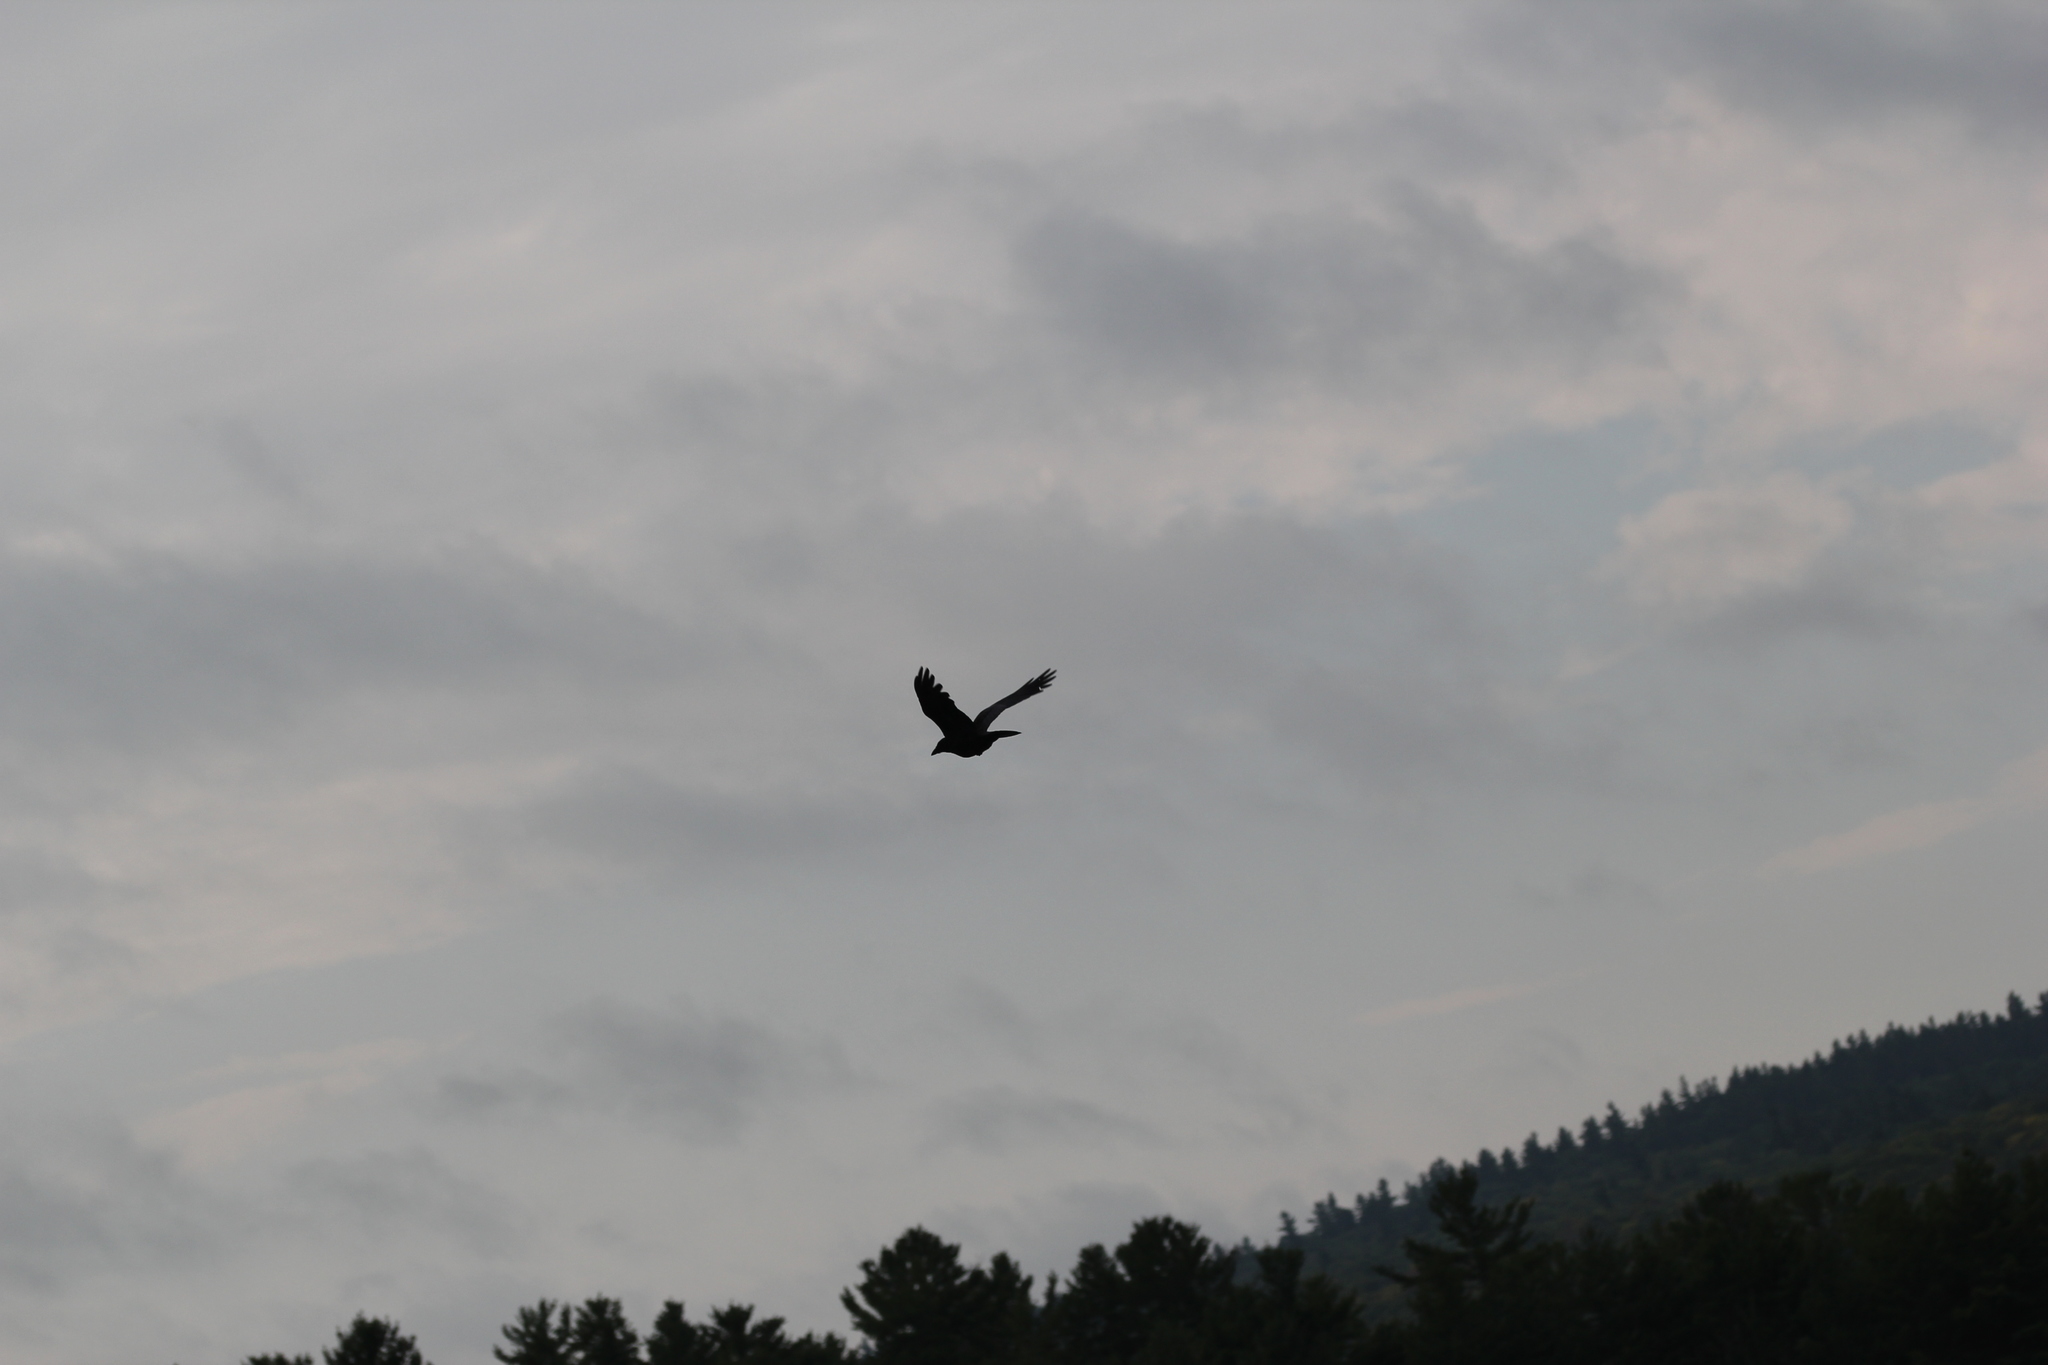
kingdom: Animalia
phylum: Chordata
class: Aves
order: Passeriformes
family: Corvidae
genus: Corvus
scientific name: Corvus brachyrhynchos
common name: American crow
